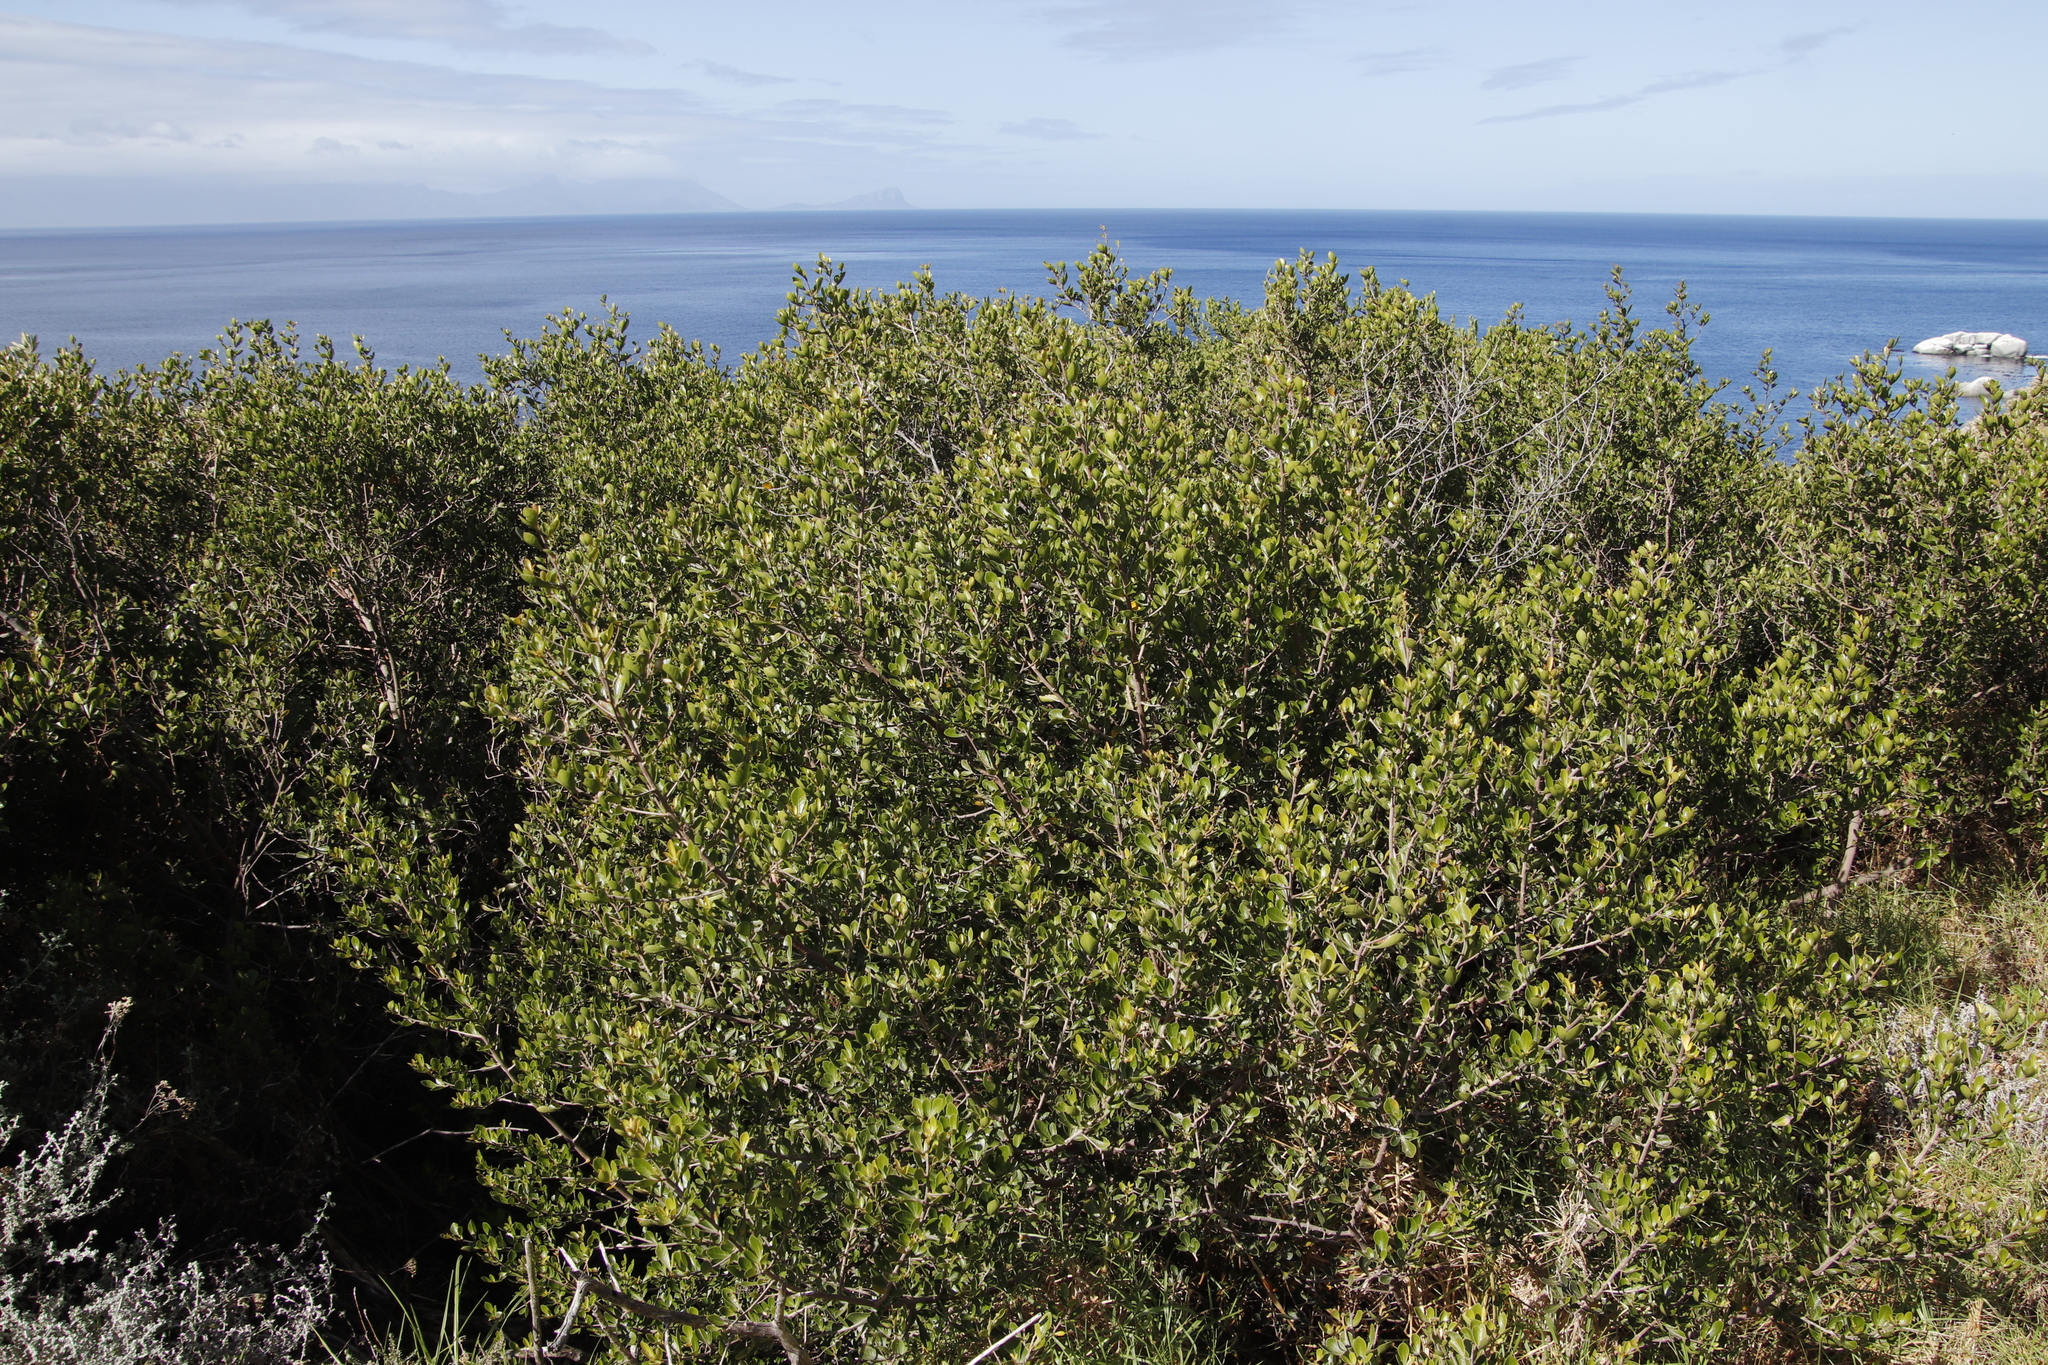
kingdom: Plantae
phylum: Tracheophyta
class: Magnoliopsida
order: Sapindales
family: Anacardiaceae
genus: Searsia
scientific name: Searsia lucida
